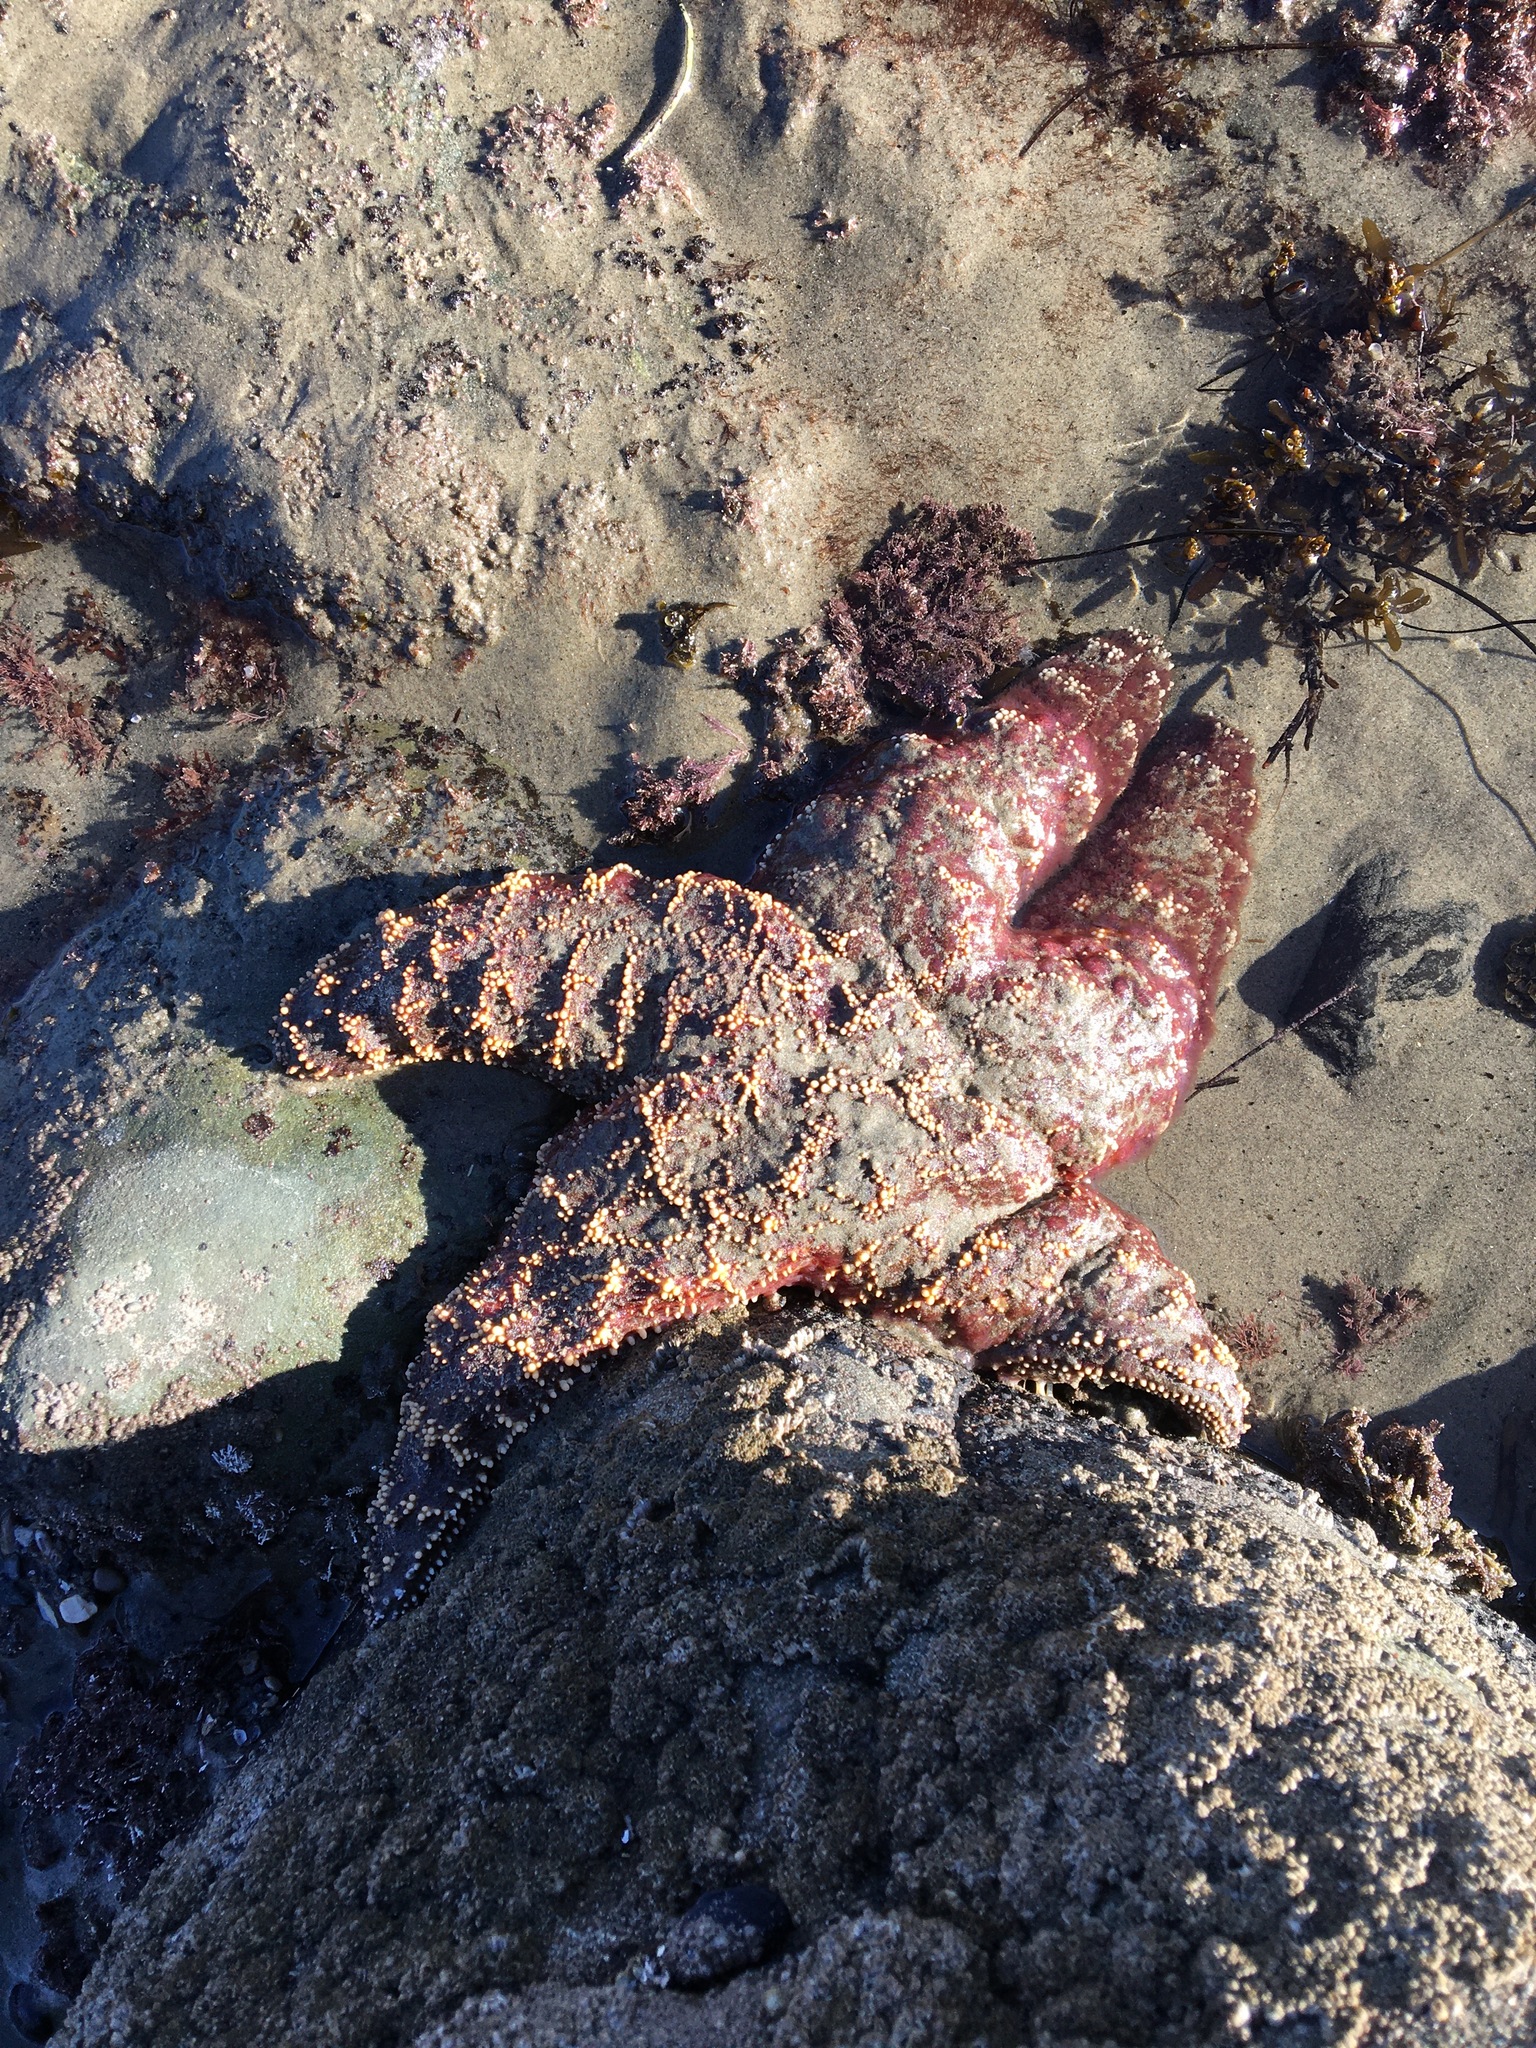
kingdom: Animalia
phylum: Echinodermata
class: Asteroidea
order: Forcipulatida
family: Asteriidae
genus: Pisaster
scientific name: Pisaster ochraceus
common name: Ochre stars
